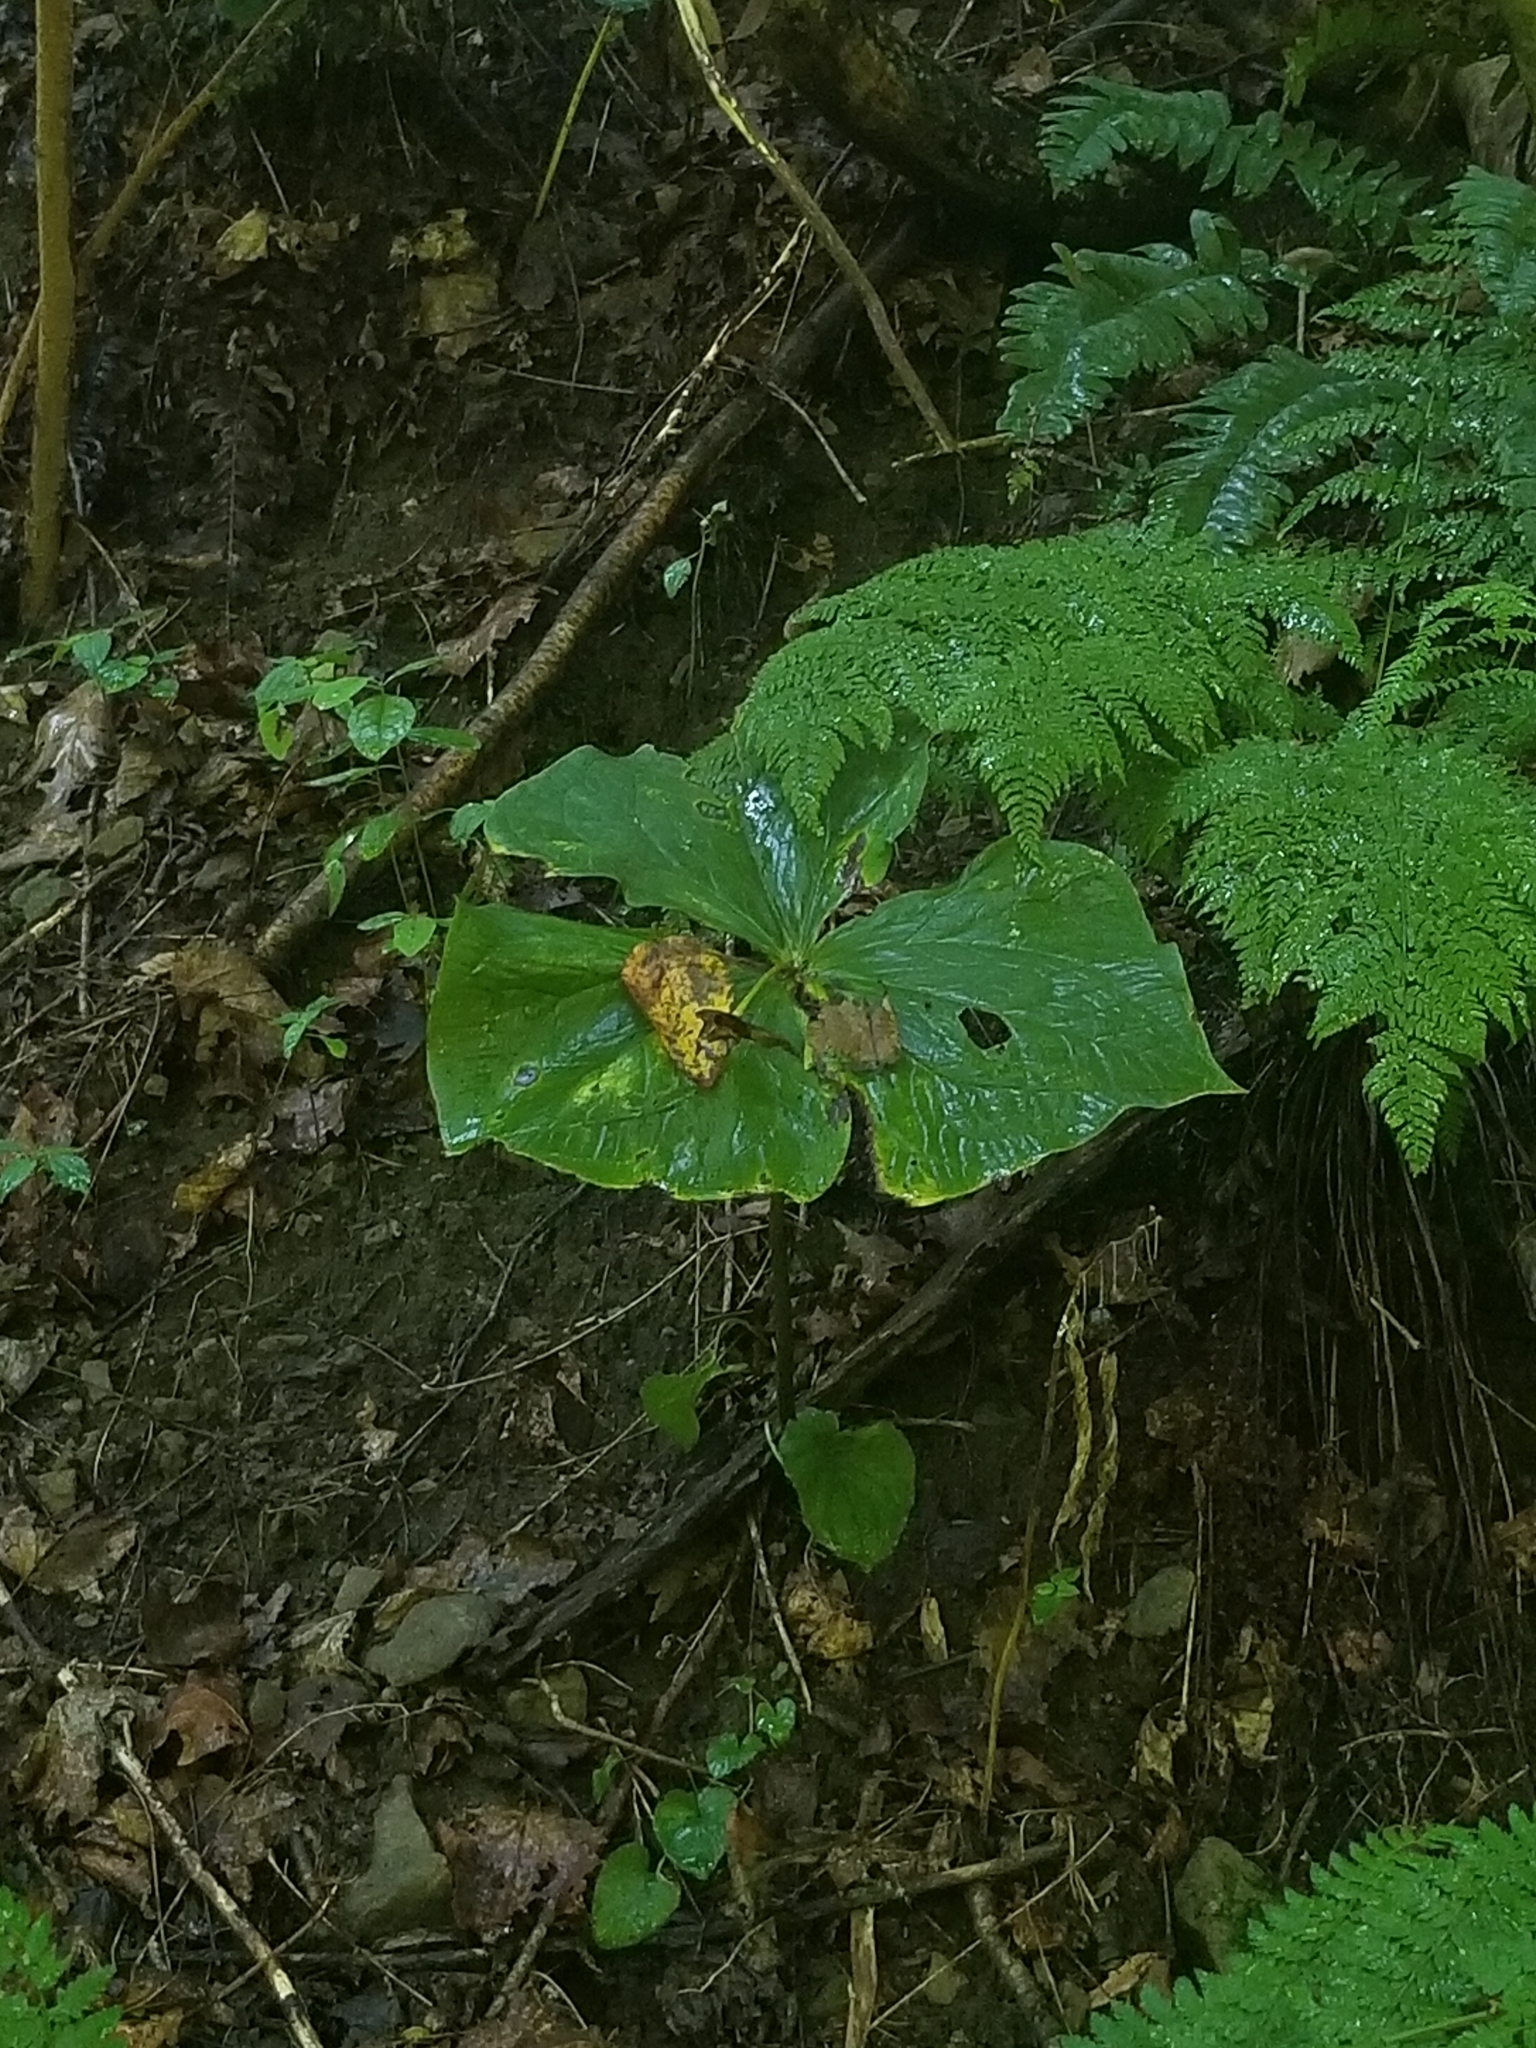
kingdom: Plantae
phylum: Tracheophyta
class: Liliopsida
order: Liliales
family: Melanthiaceae
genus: Trillium
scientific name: Trillium erectum
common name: Purple trillium
